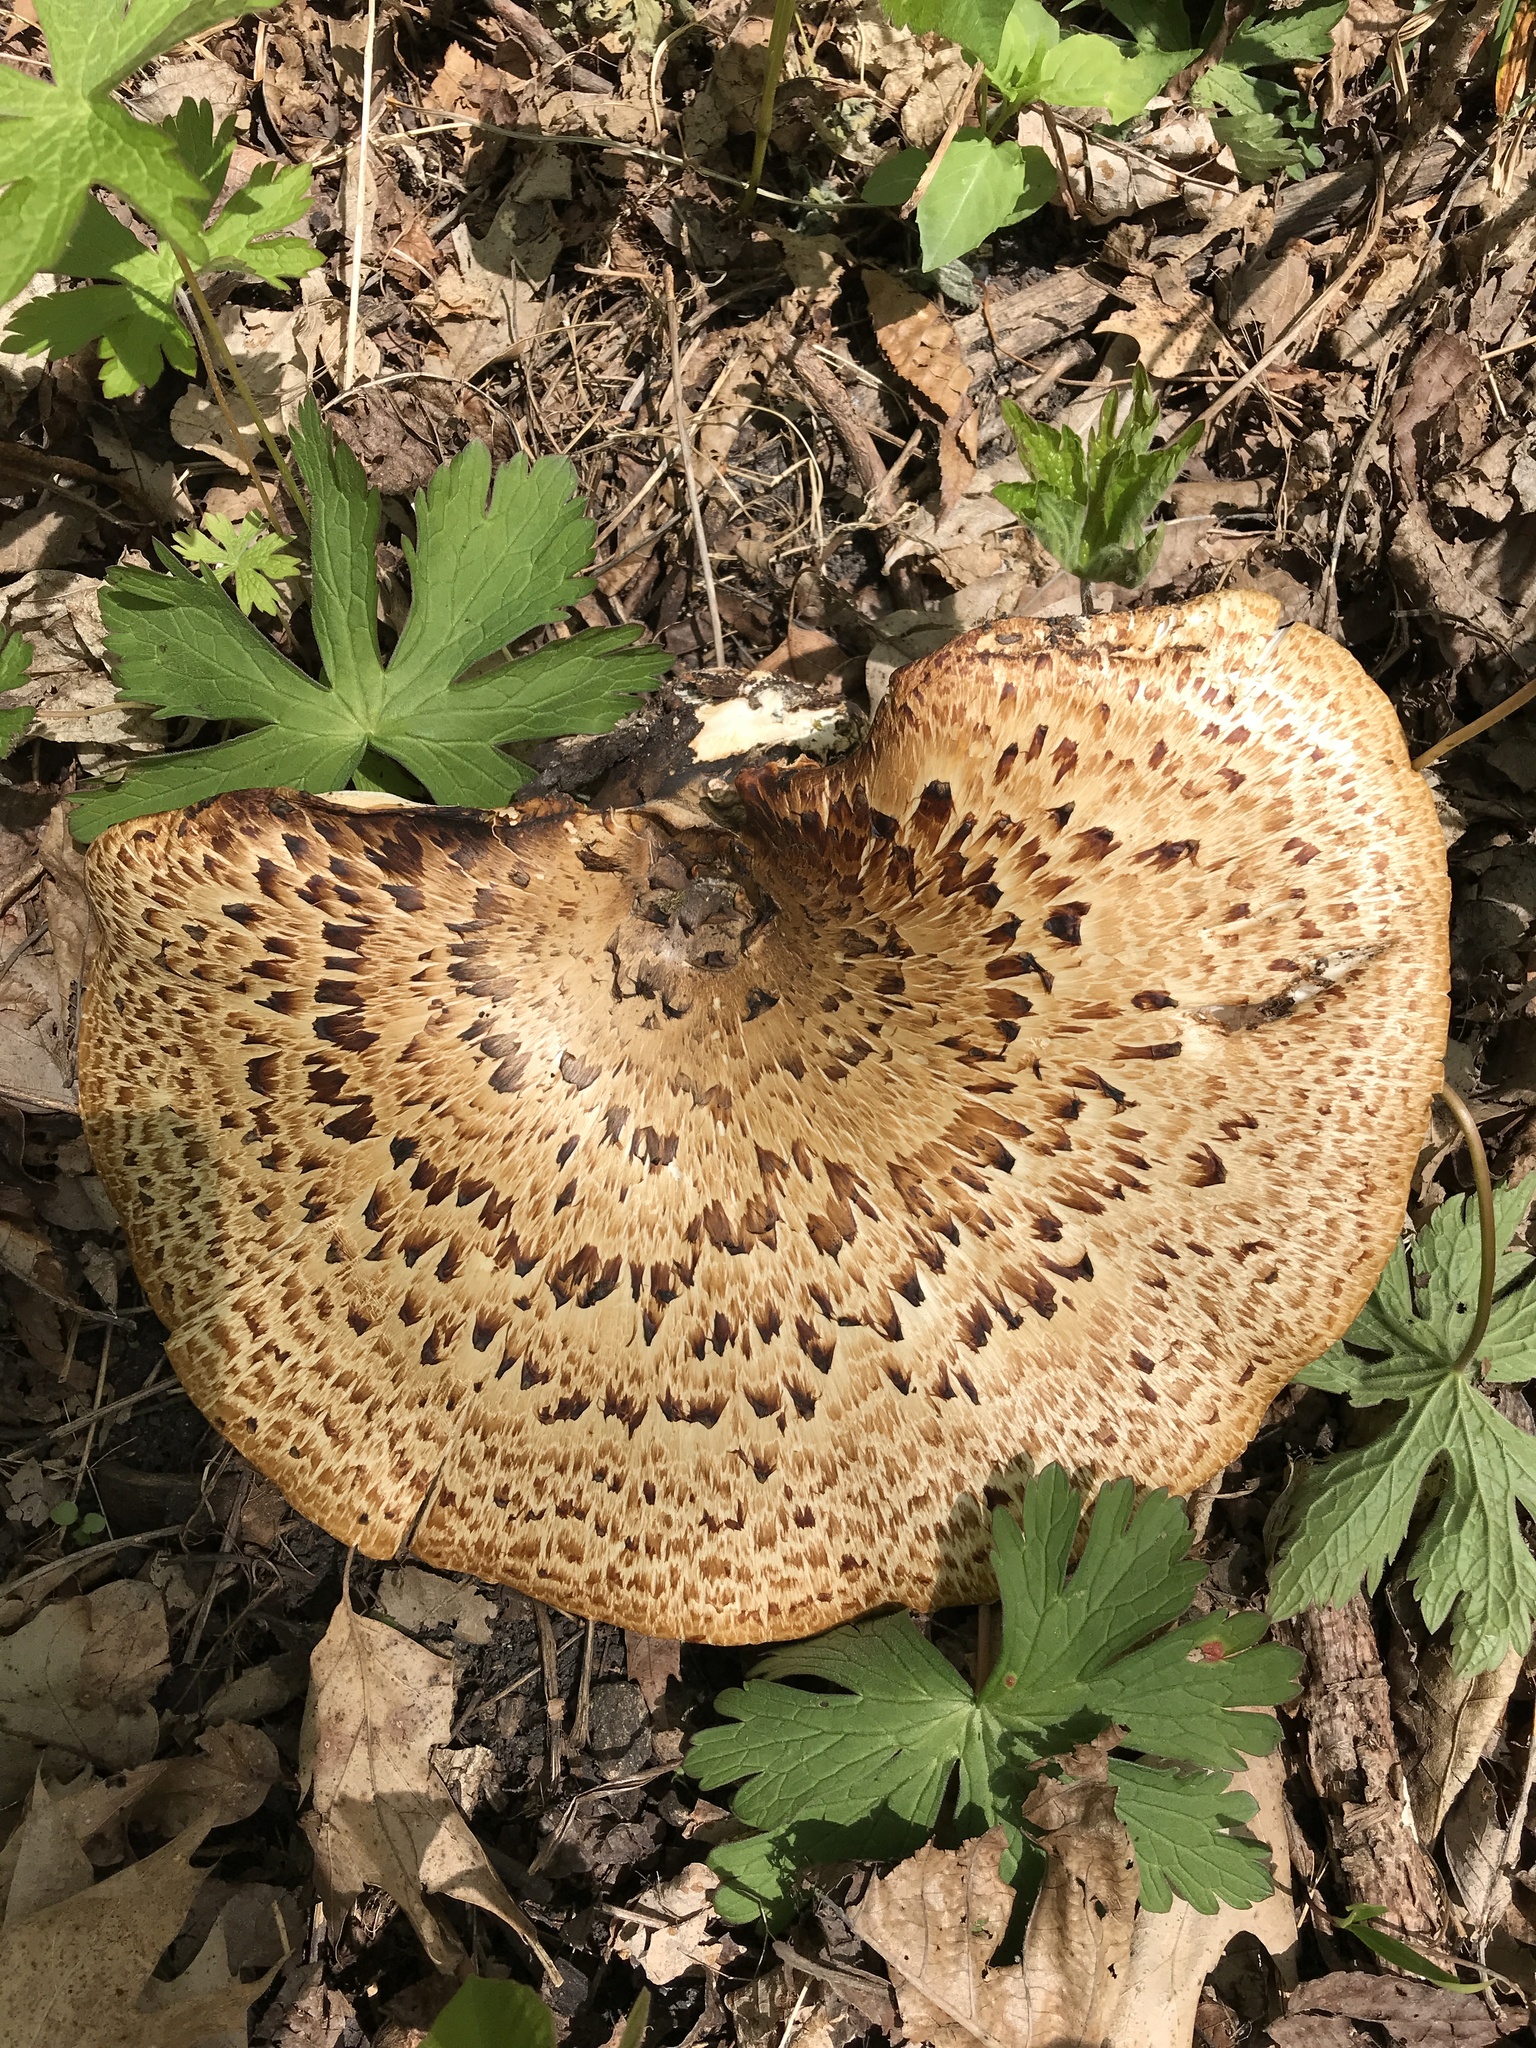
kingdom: Fungi
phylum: Basidiomycota
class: Agaricomycetes
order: Polyporales
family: Polyporaceae
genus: Cerioporus
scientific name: Cerioporus squamosus
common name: Dryad's saddle
